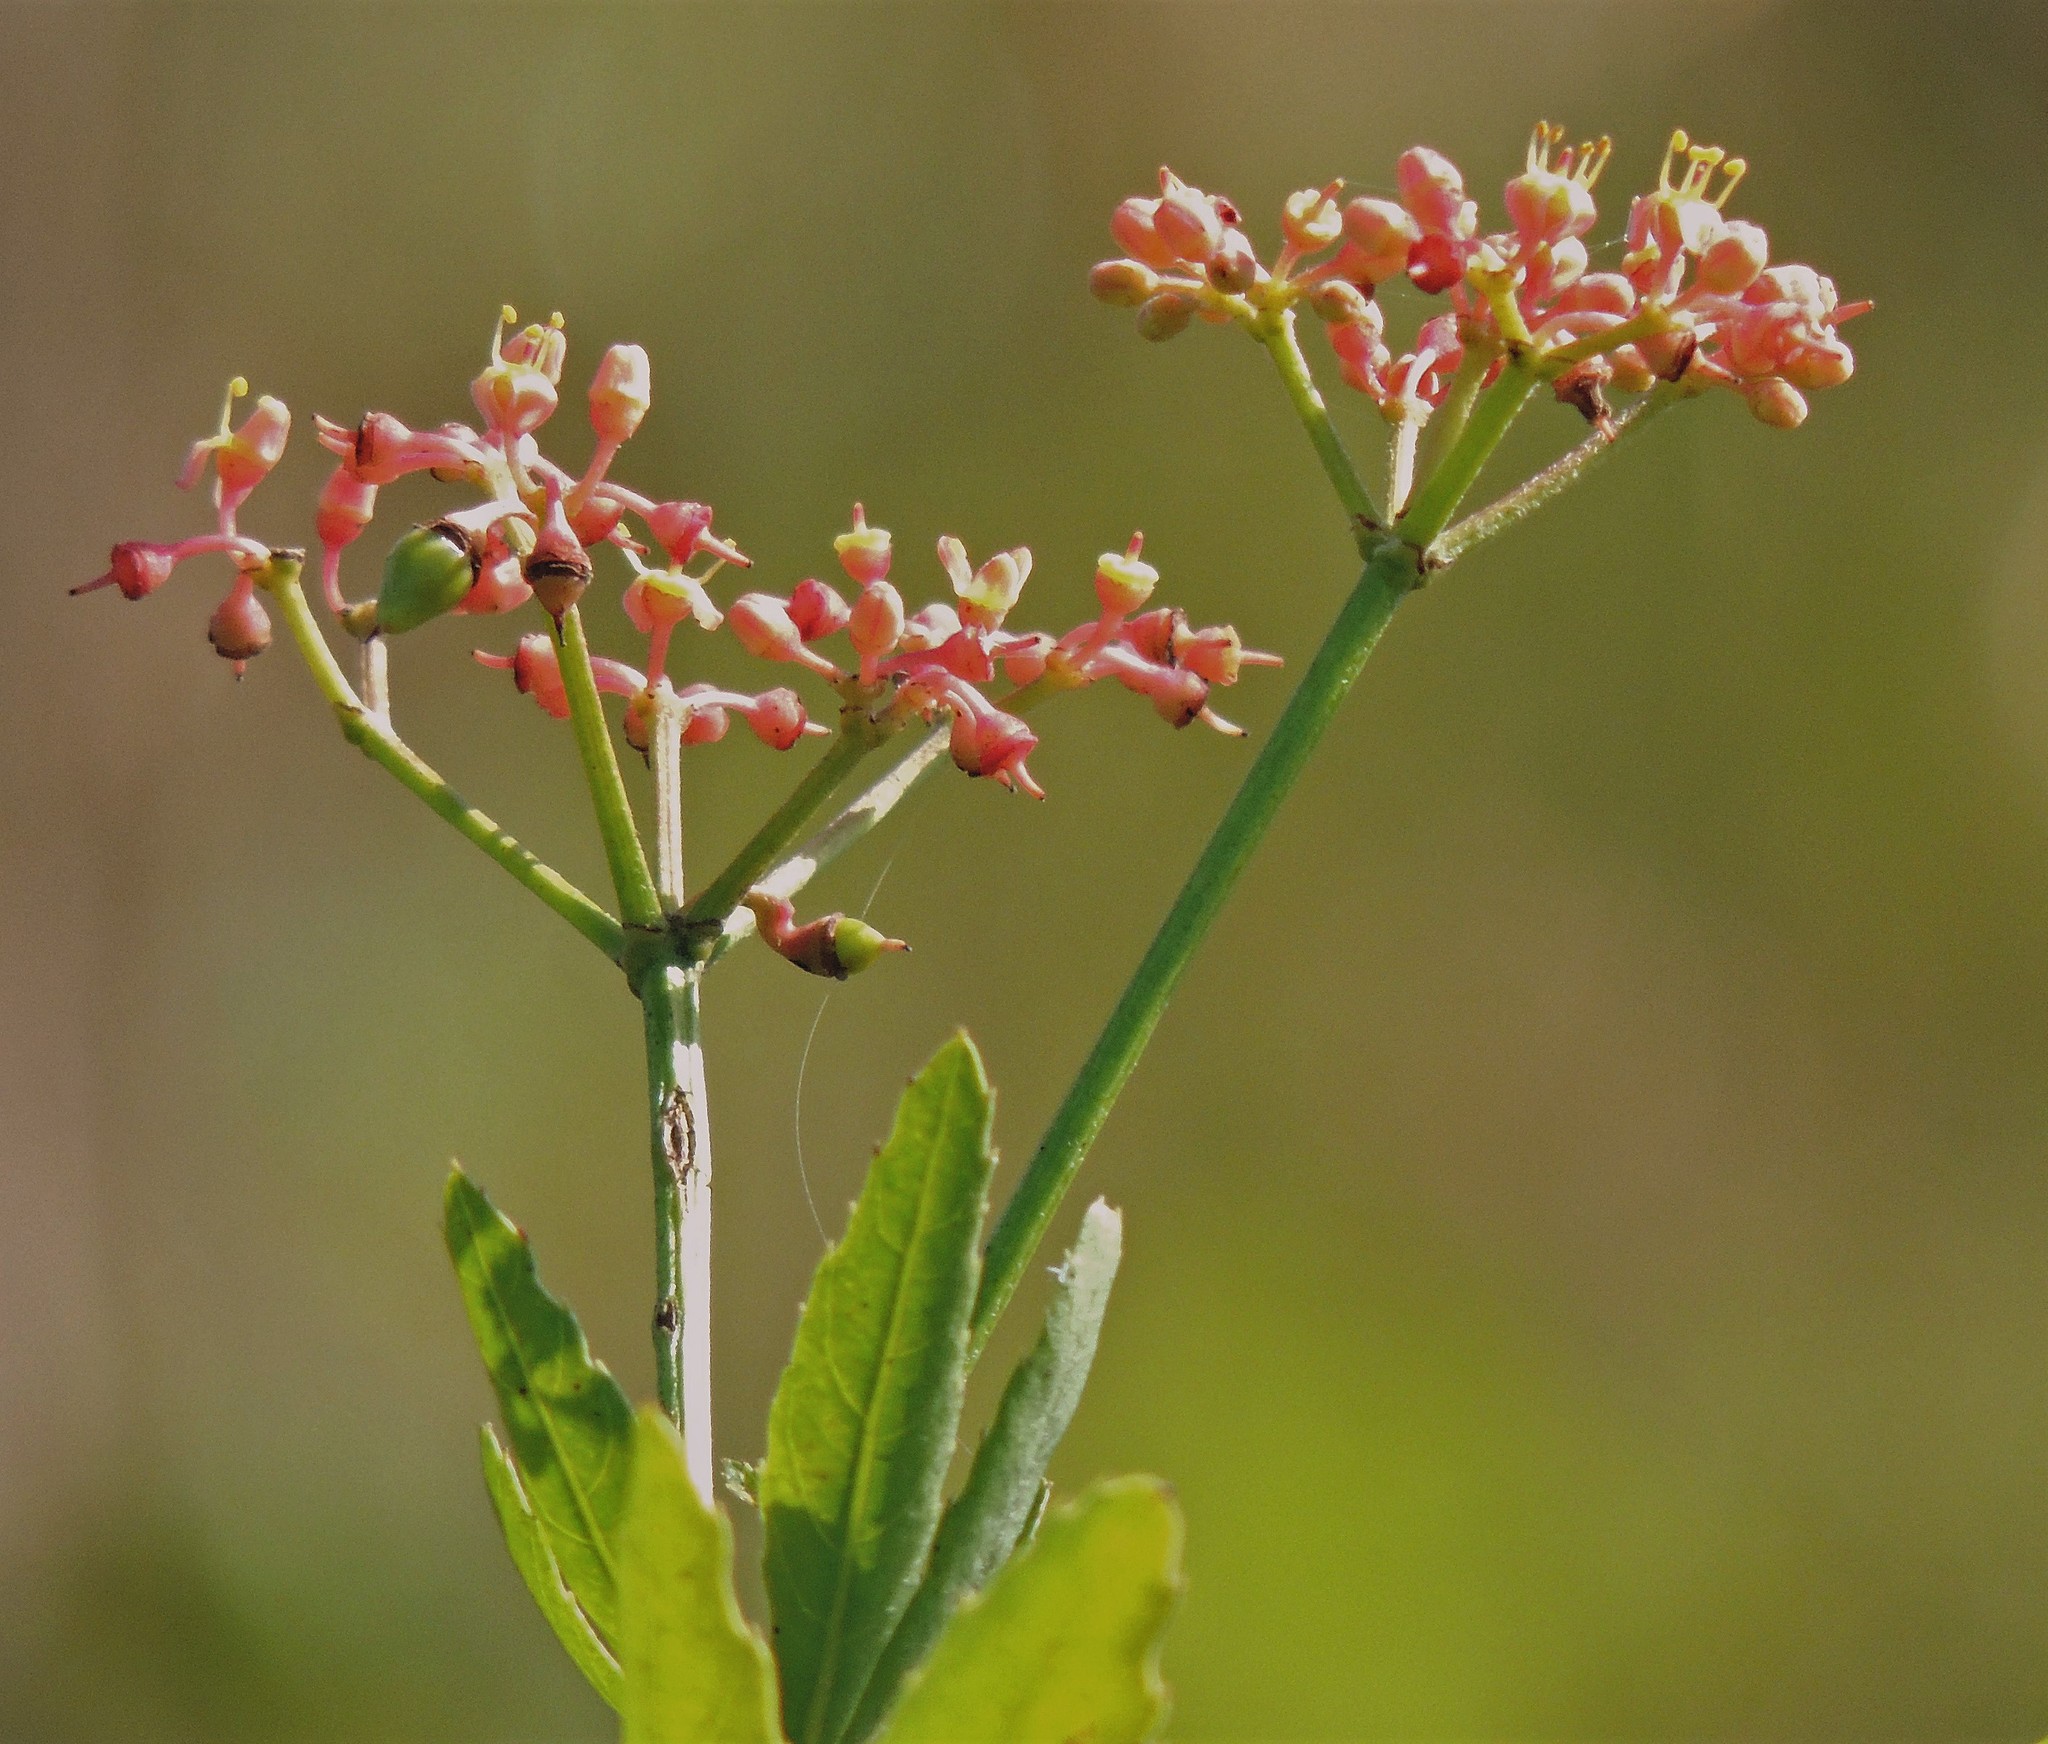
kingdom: Plantae
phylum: Tracheophyta
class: Magnoliopsida
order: Vitales
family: Vitaceae
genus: Cissus
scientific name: Cissus palmata
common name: Grape
